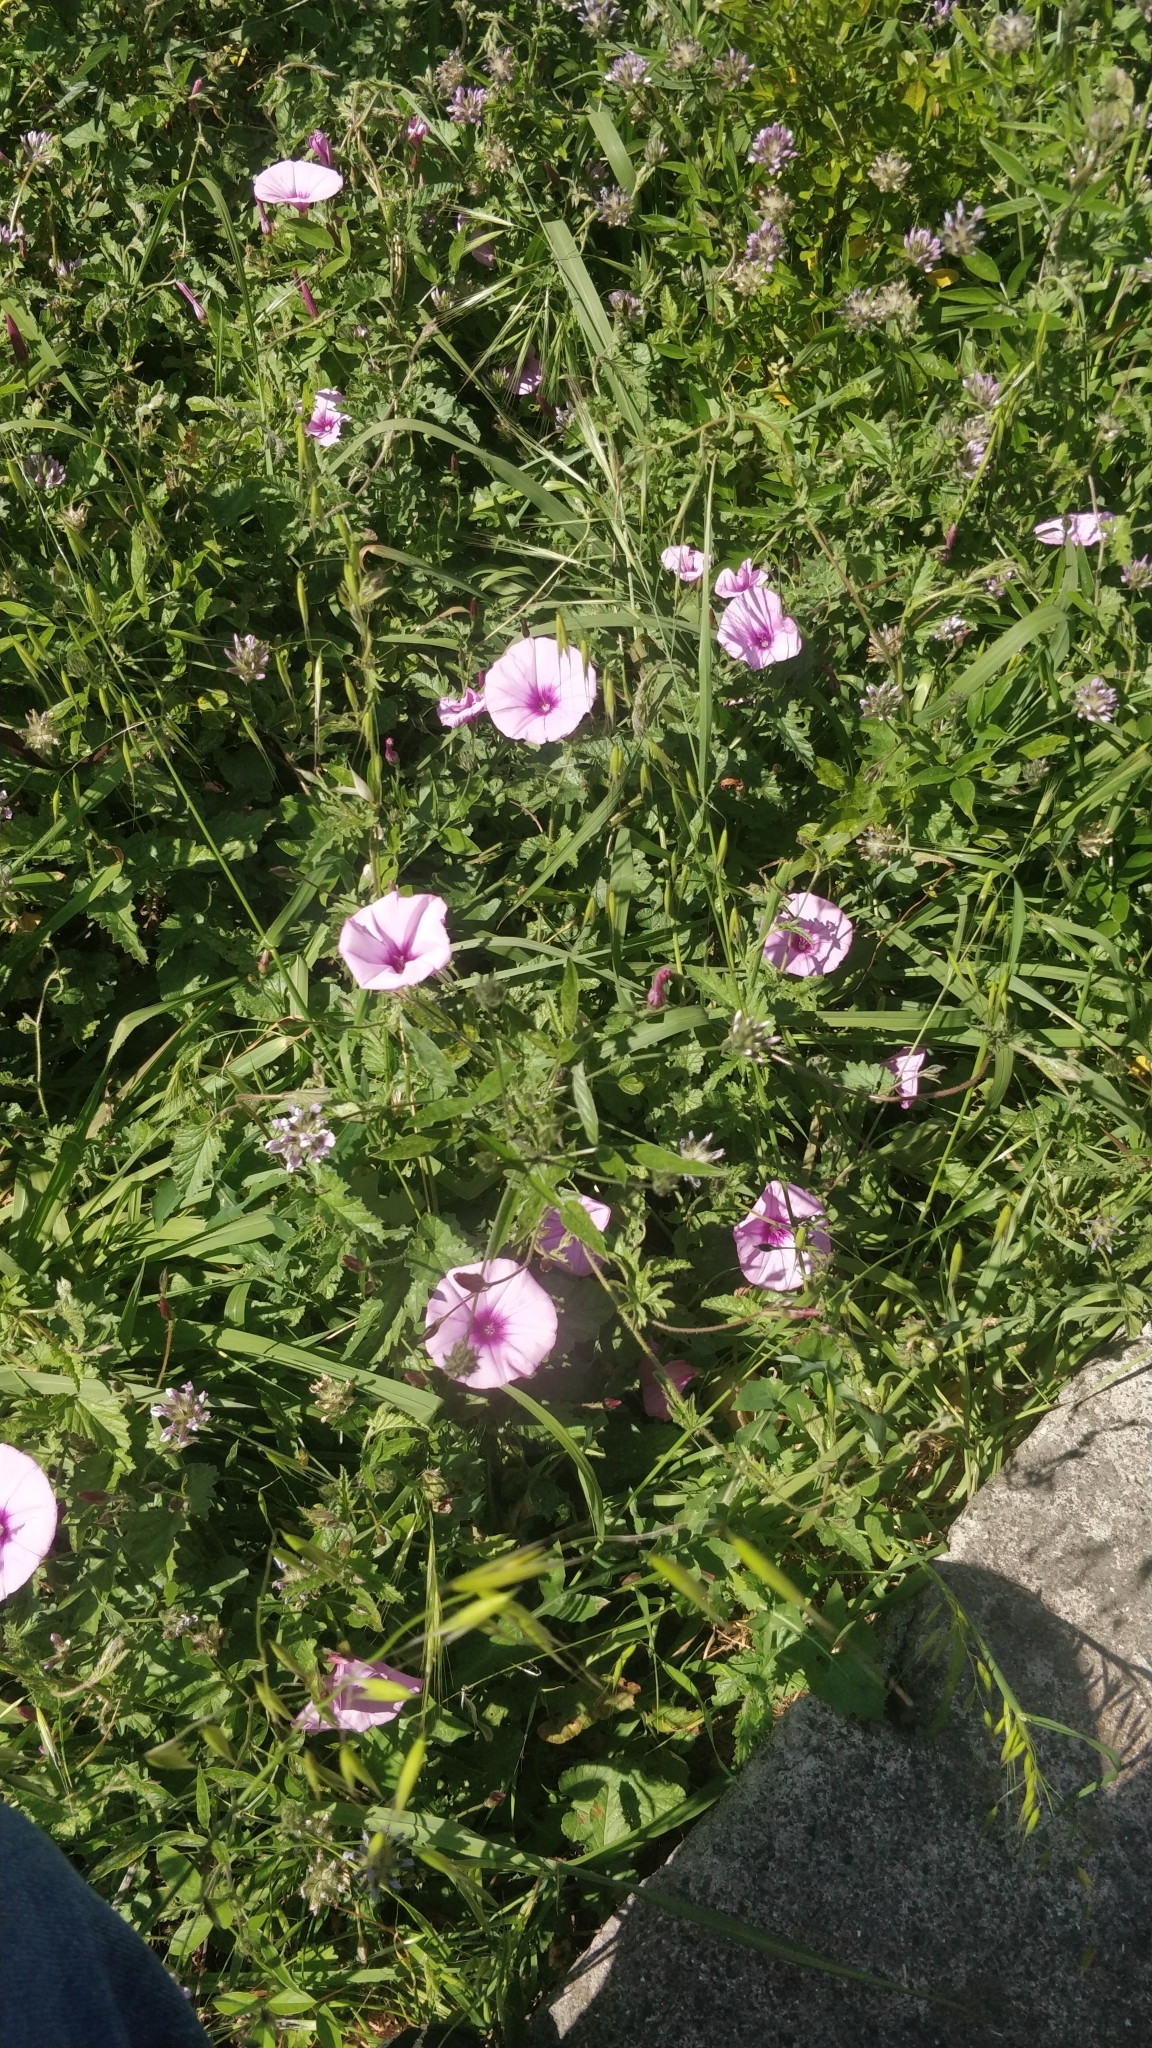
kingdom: Plantae
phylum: Tracheophyta
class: Magnoliopsida
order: Solanales
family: Convolvulaceae
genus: Convolvulus
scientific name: Convolvulus althaeoides
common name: Mallow bindweed
